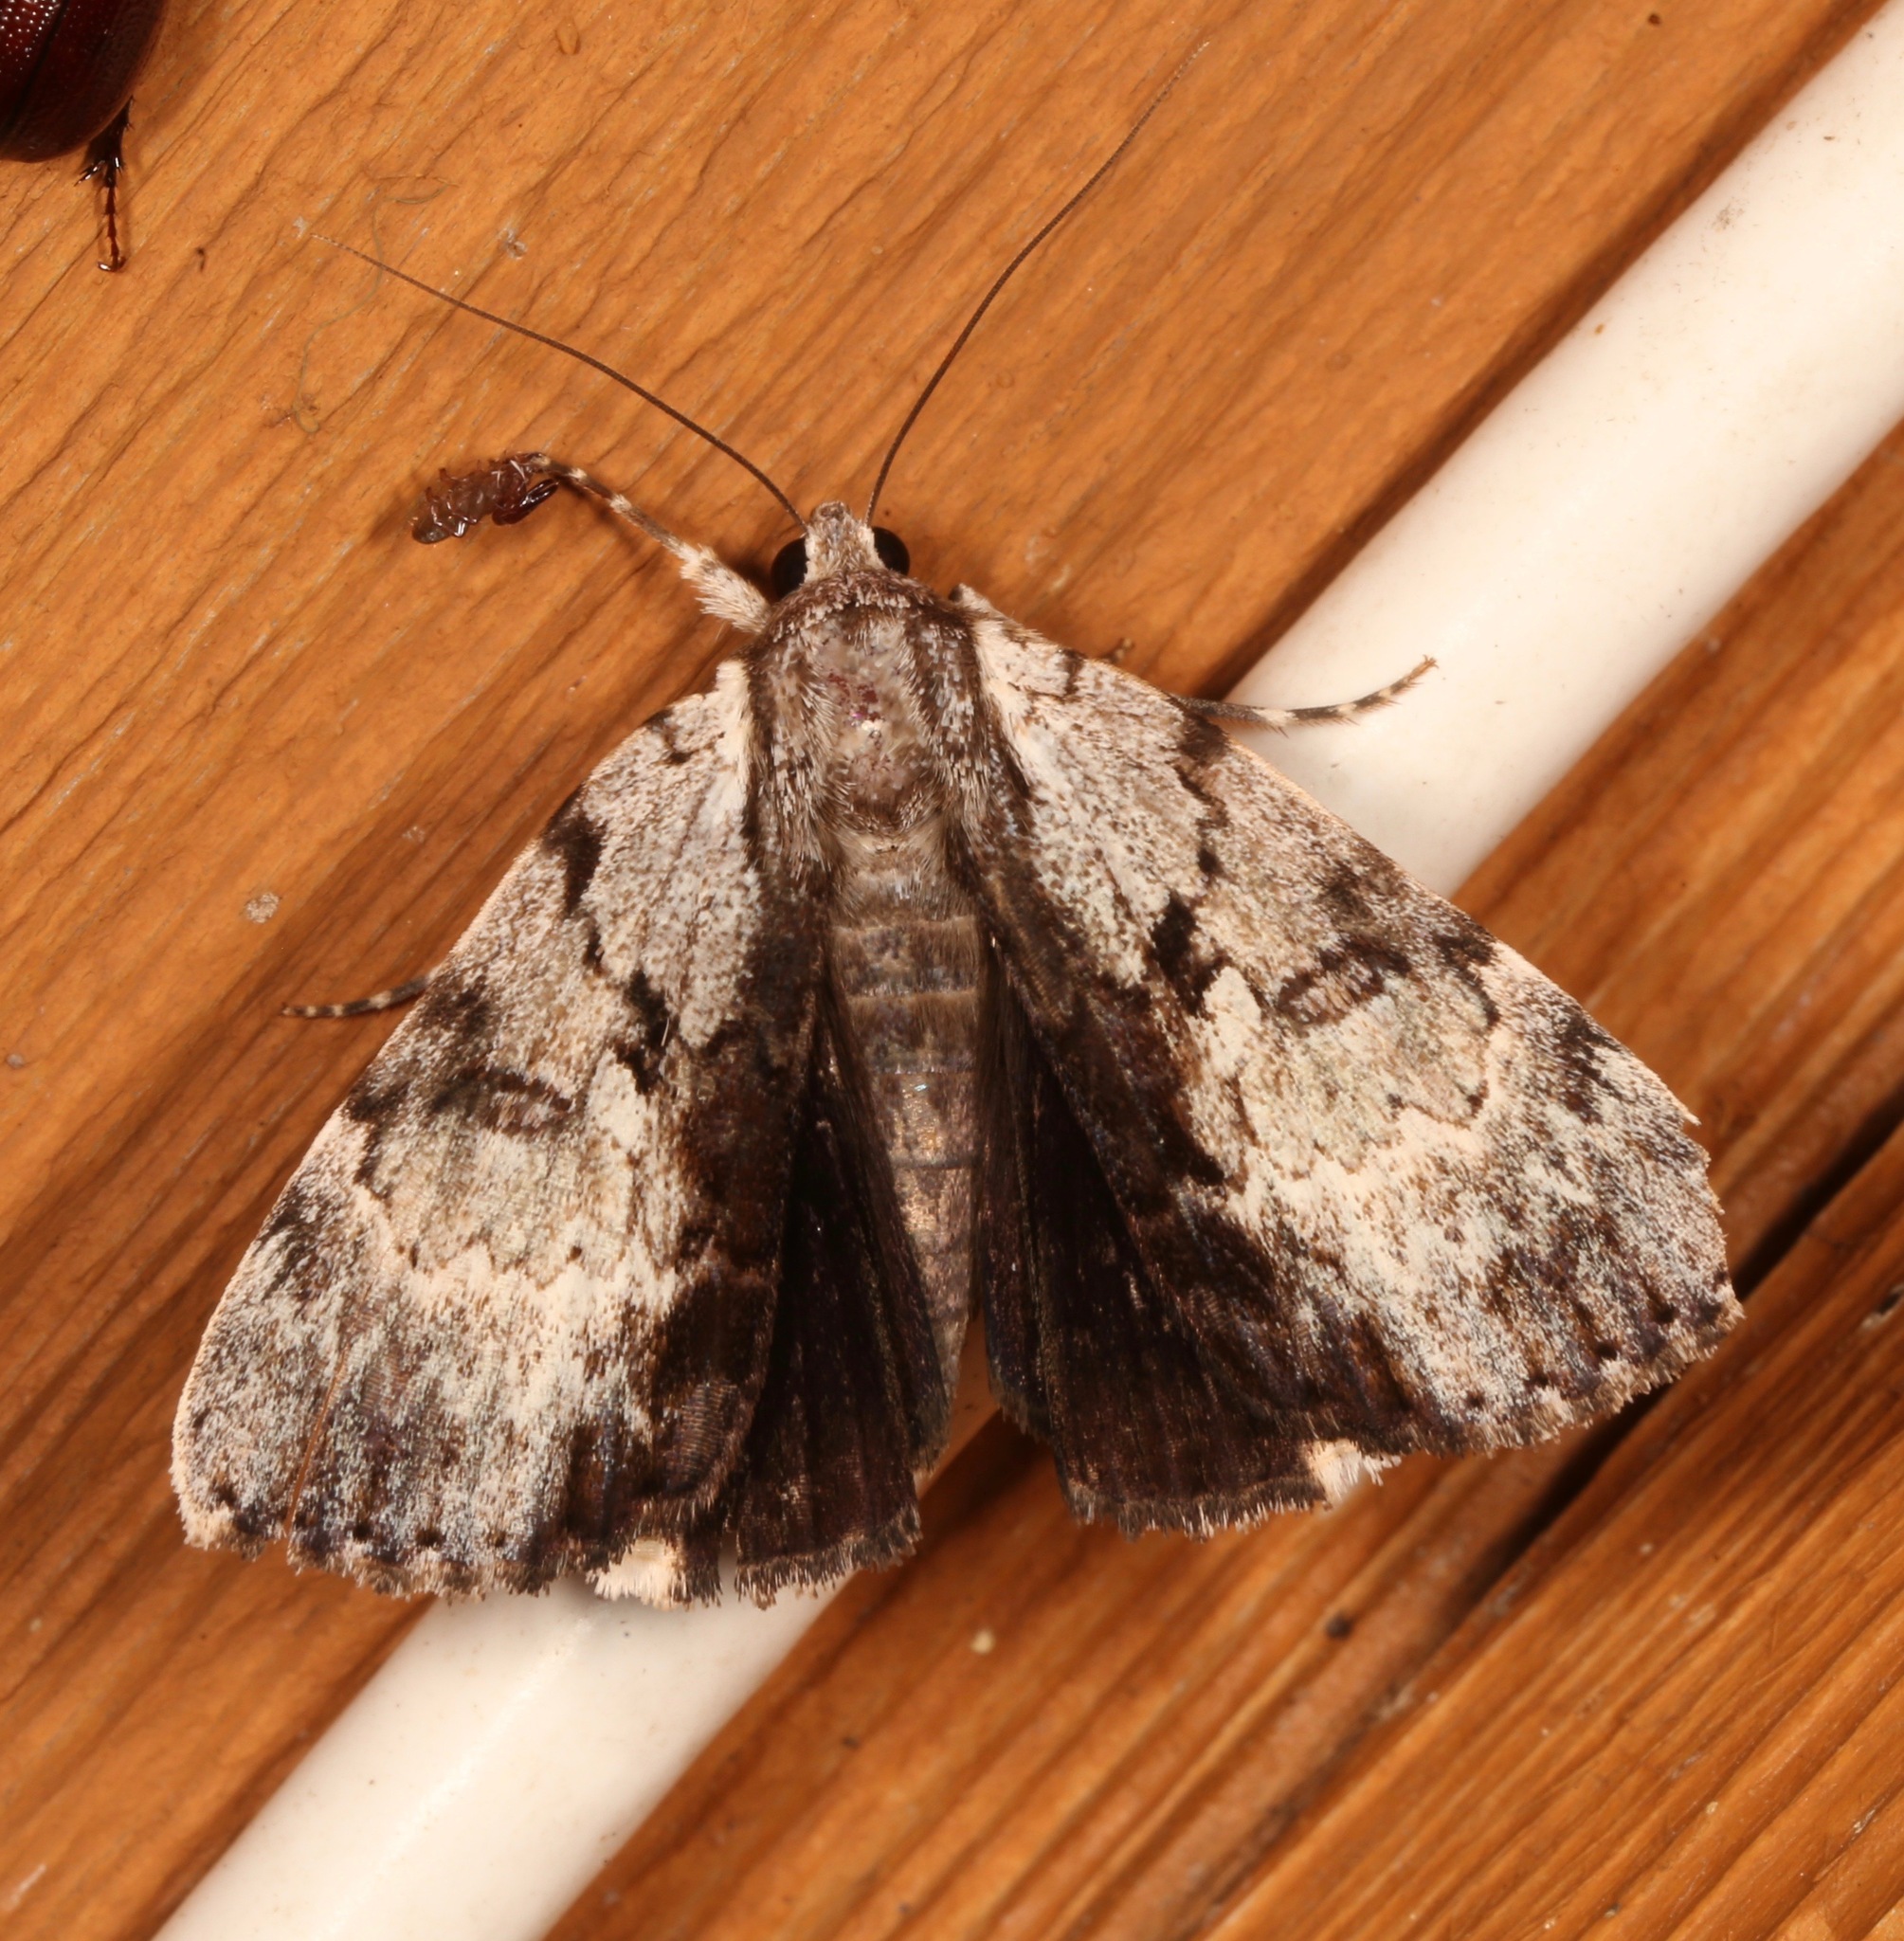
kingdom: Animalia
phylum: Arthropoda
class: Insecta
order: Lepidoptera
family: Erebidae
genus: Catocala
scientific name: Catocala andromedae
